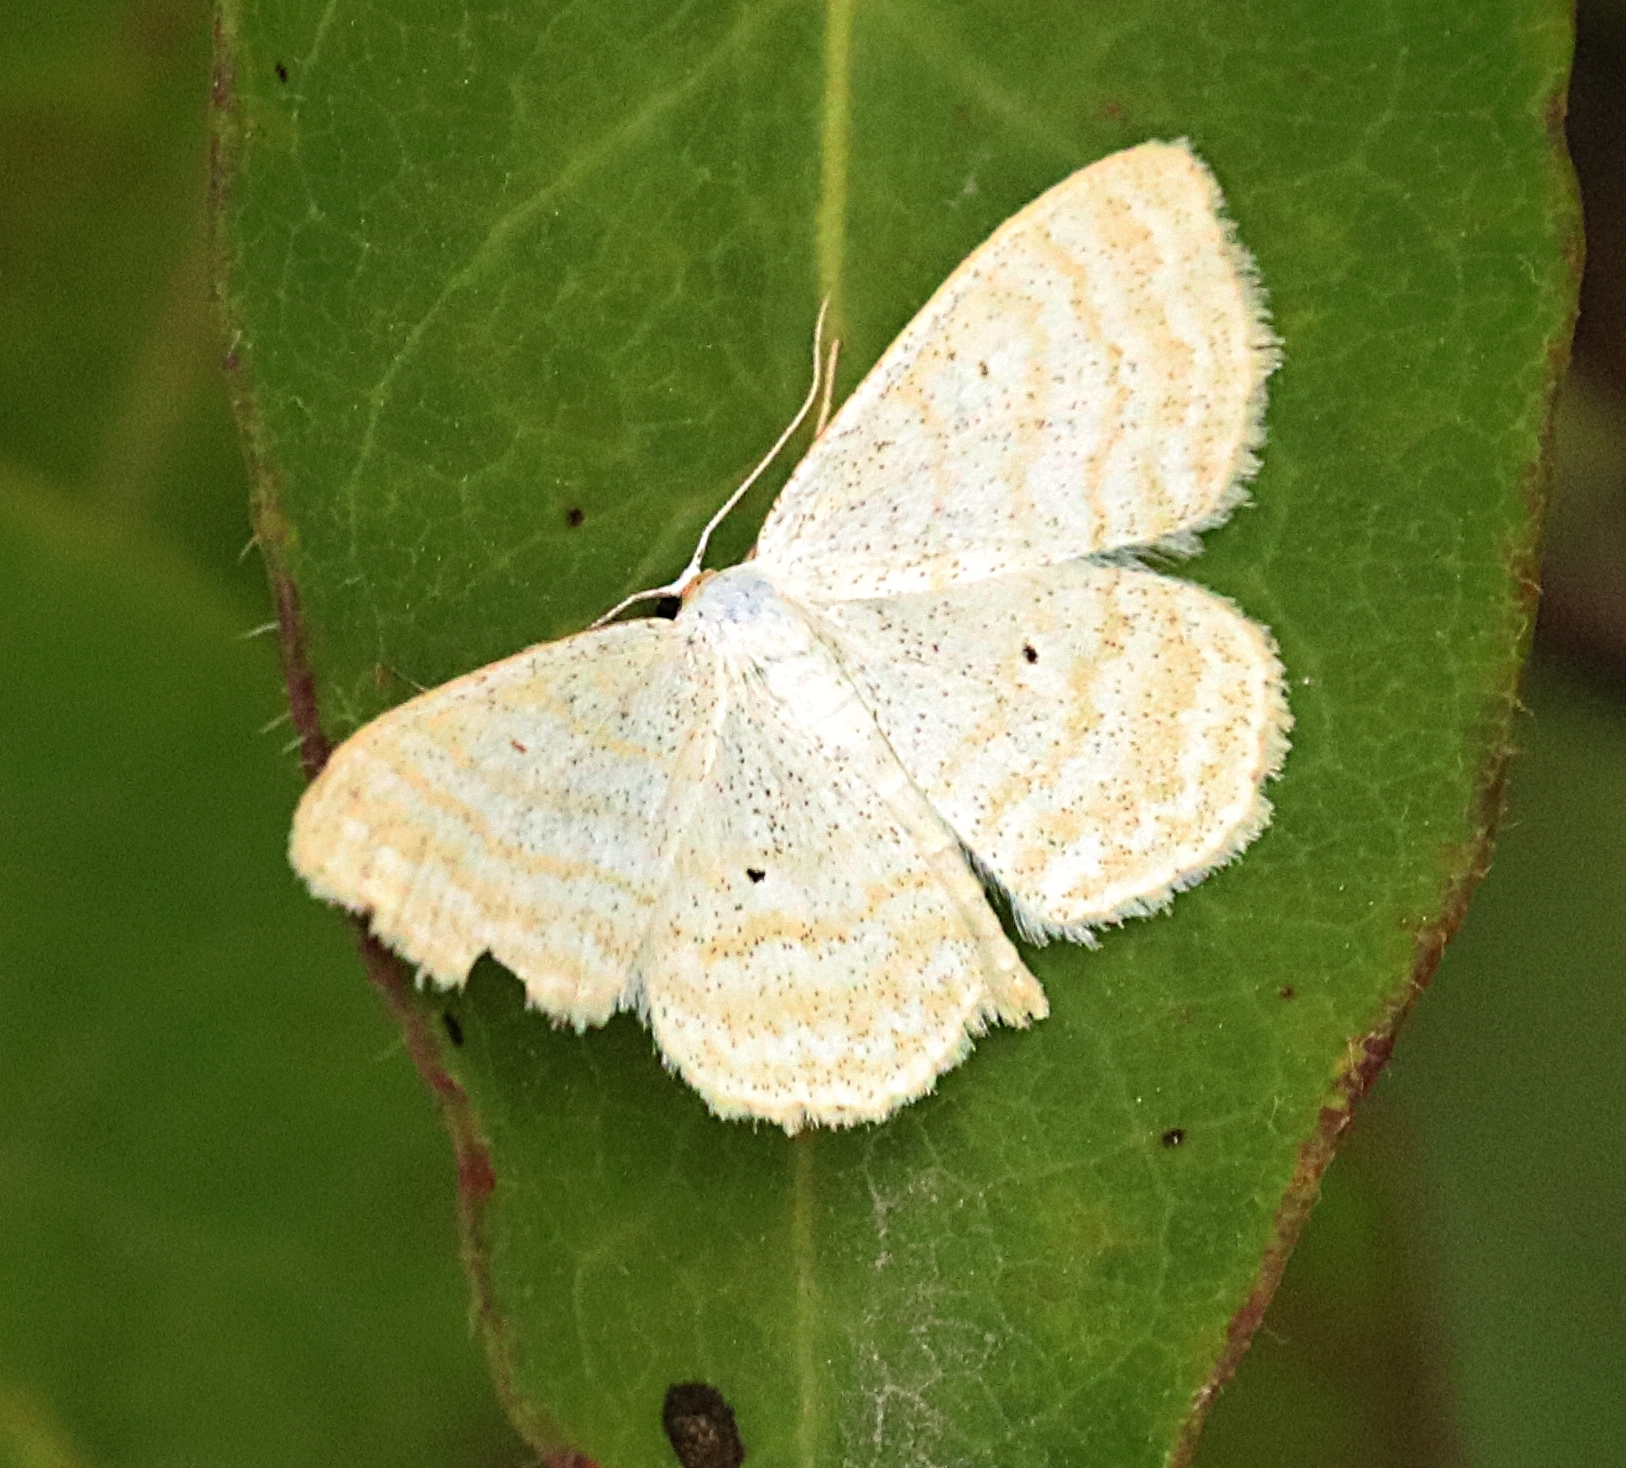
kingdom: Animalia
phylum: Arthropoda
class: Insecta
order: Lepidoptera
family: Geometridae
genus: Scopula
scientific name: Scopula immutata
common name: Lesser cream wave
